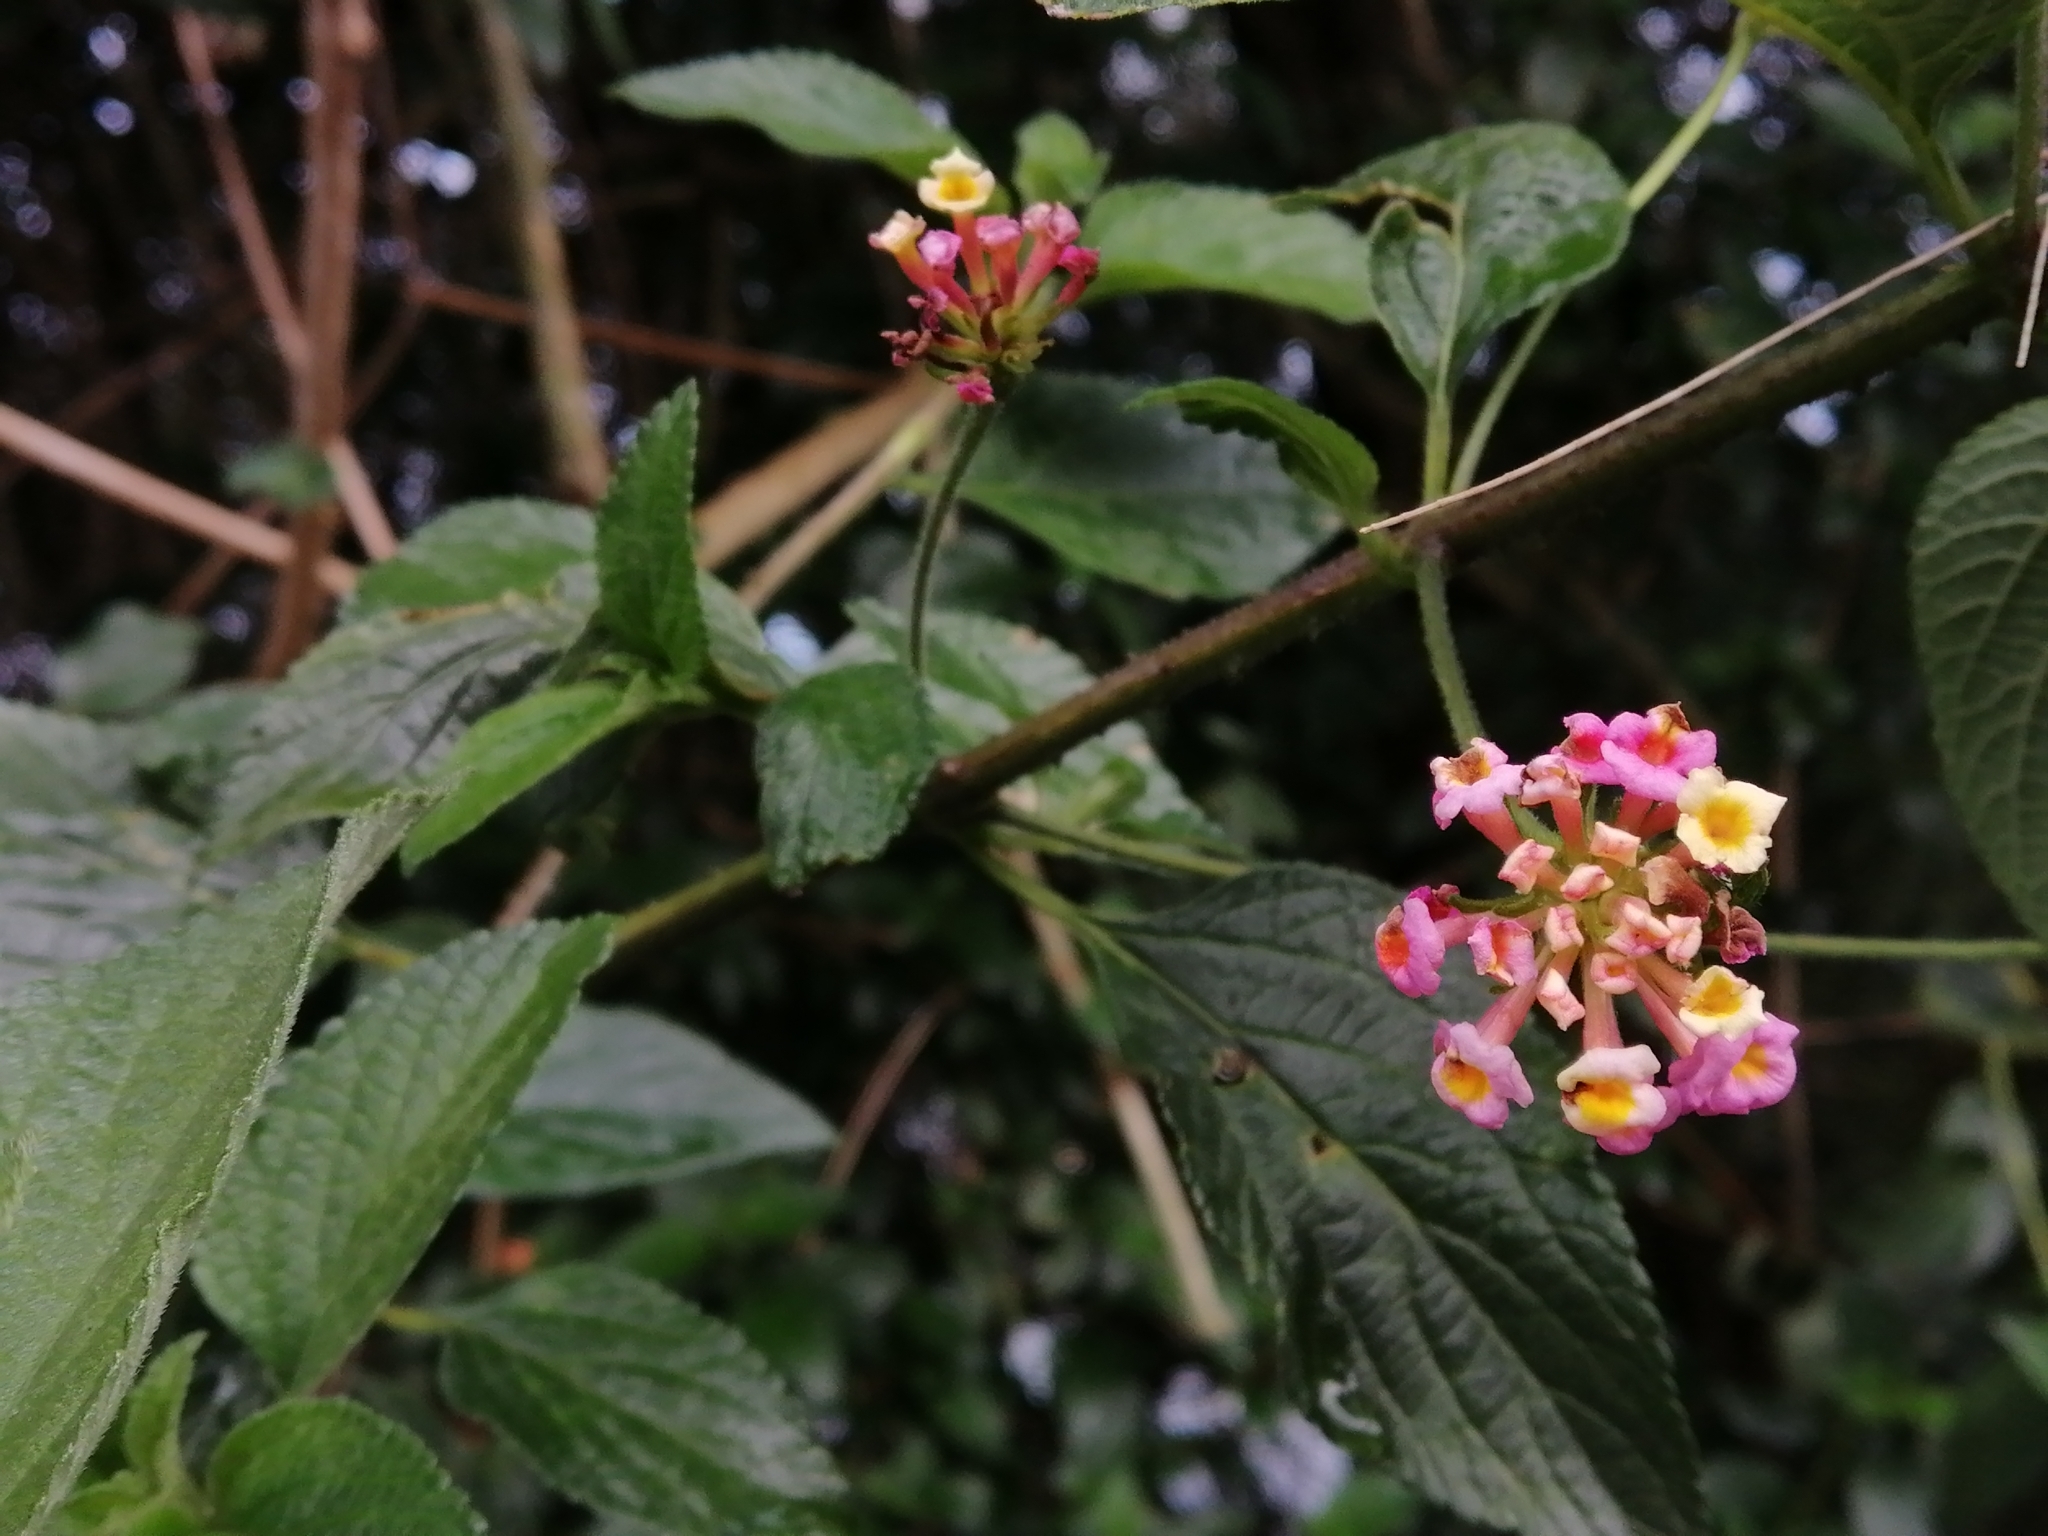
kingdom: Plantae
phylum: Tracheophyta
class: Magnoliopsida
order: Lamiales
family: Verbenaceae
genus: Lantana
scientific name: Lantana camara
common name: Lantana
